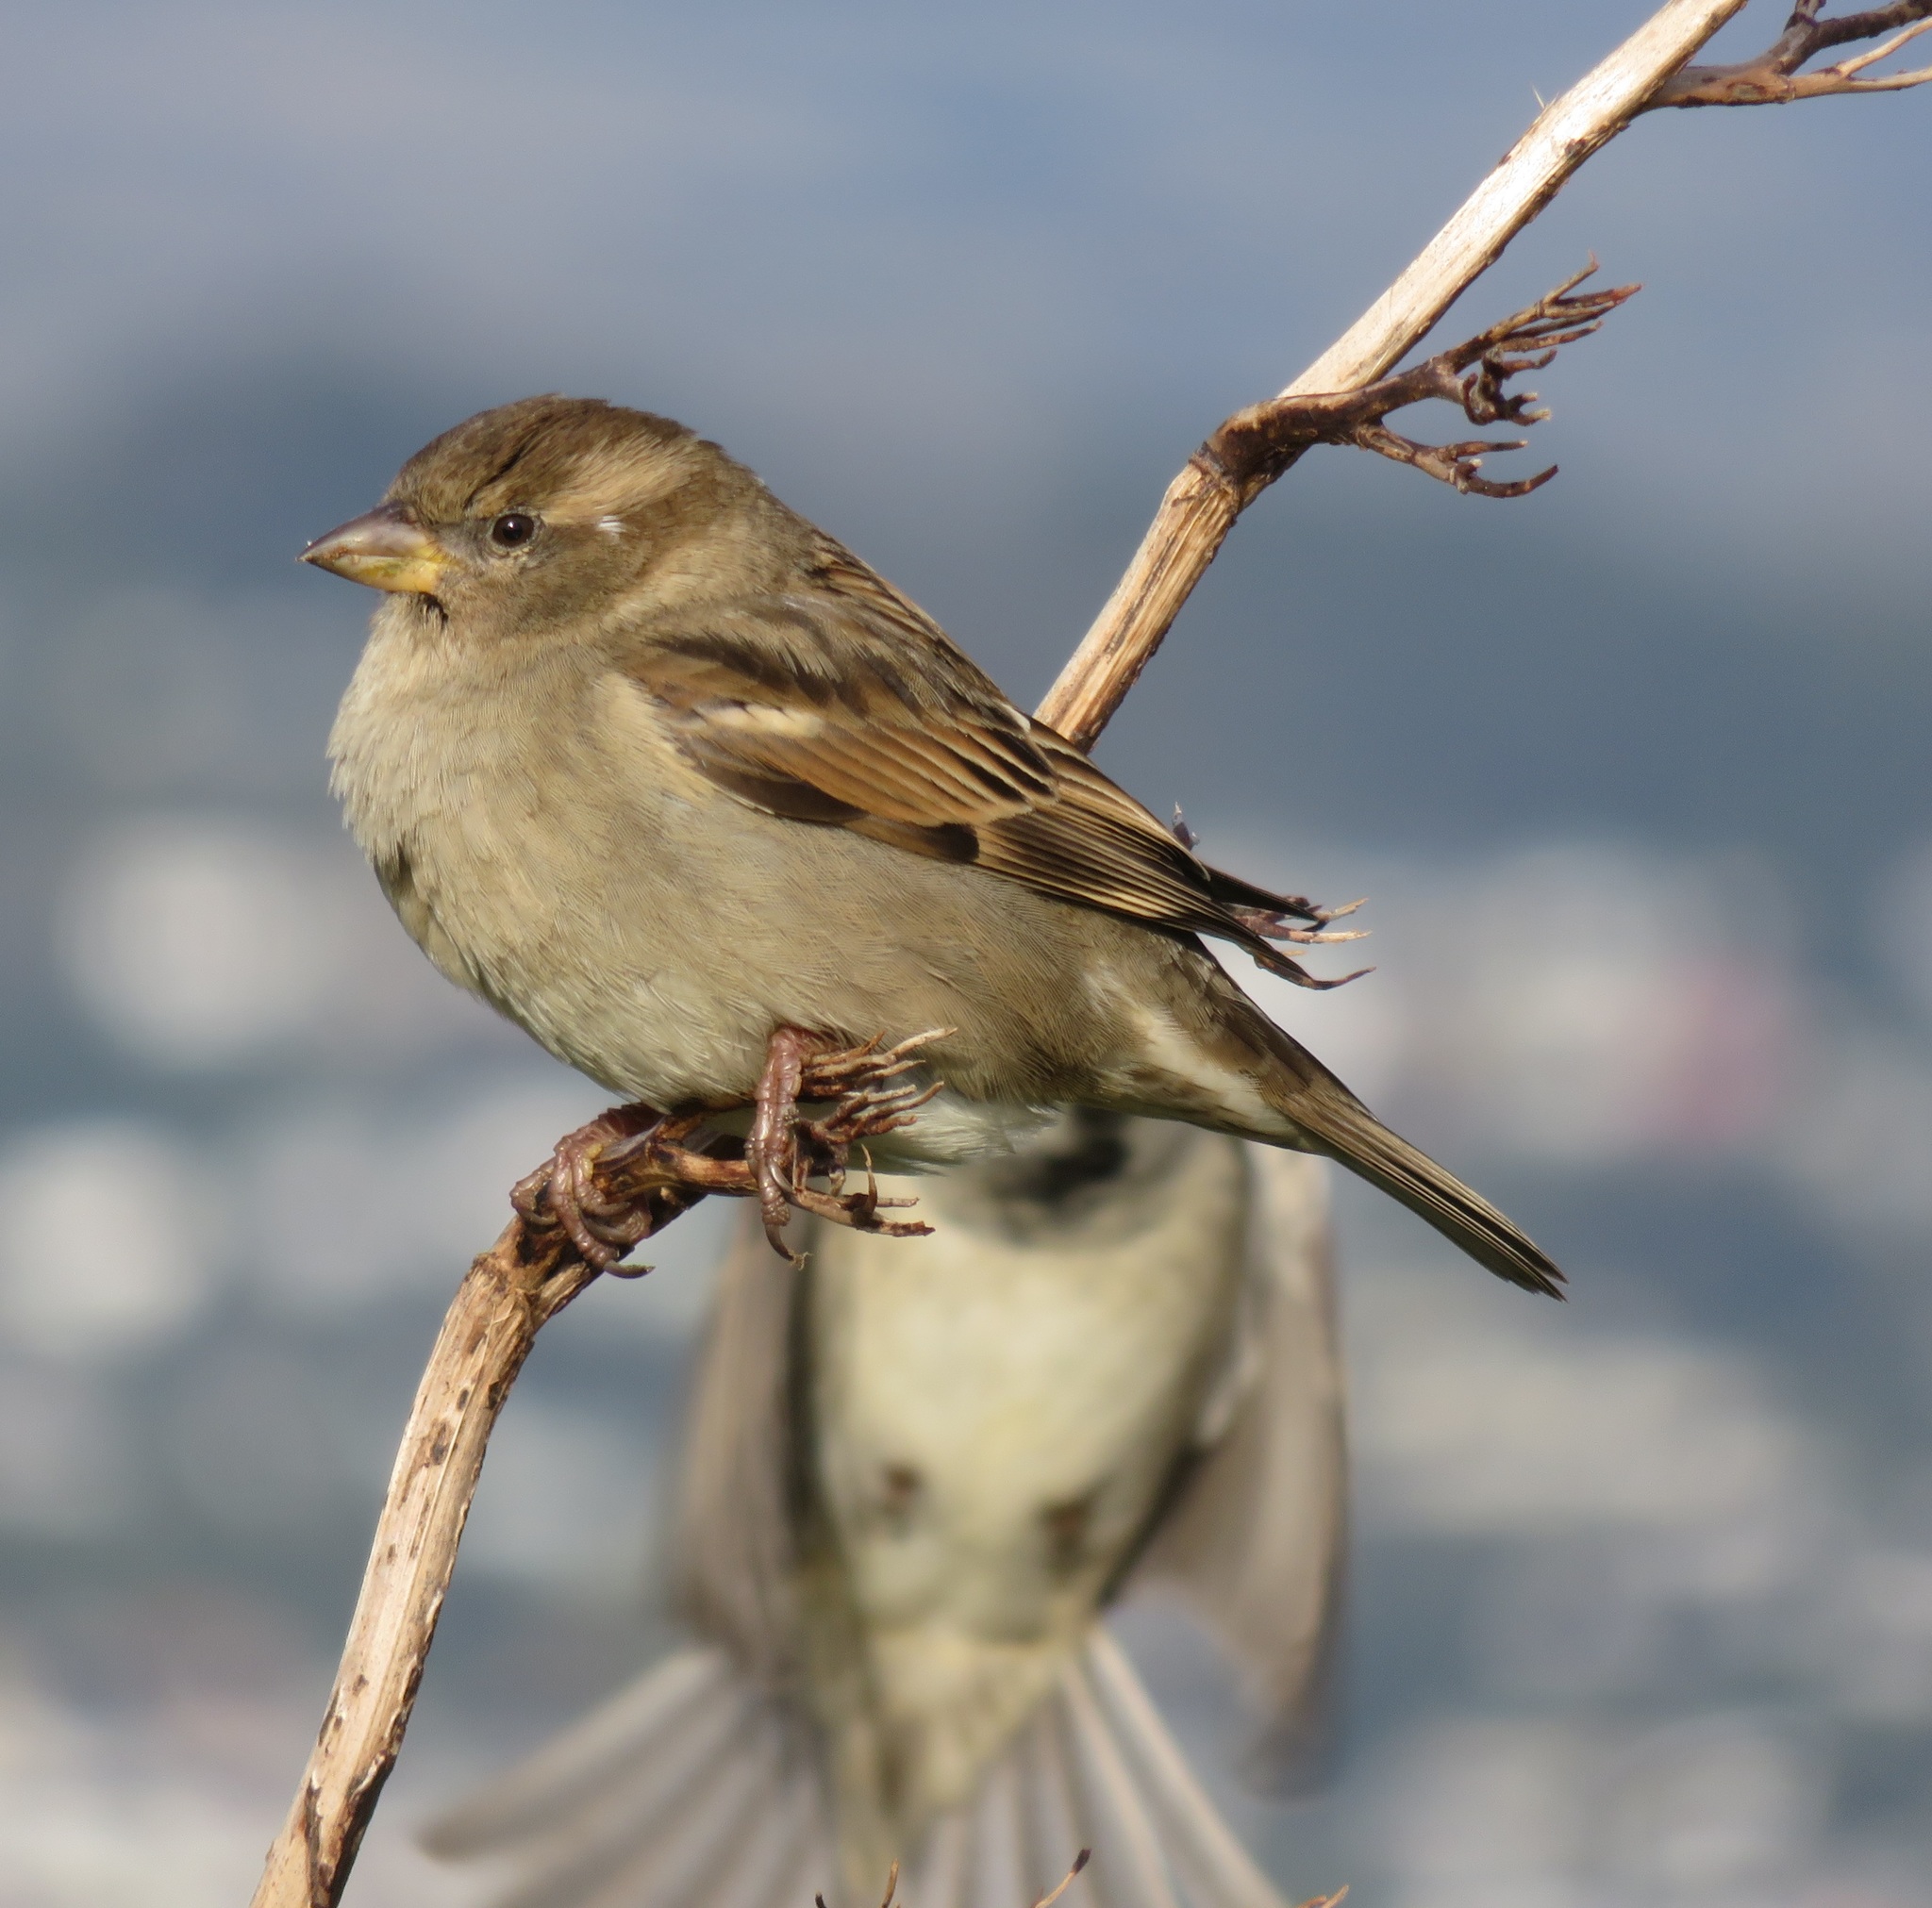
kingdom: Animalia
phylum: Chordata
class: Aves
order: Passeriformes
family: Passeridae
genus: Passer
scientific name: Passer domesticus
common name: House sparrow
